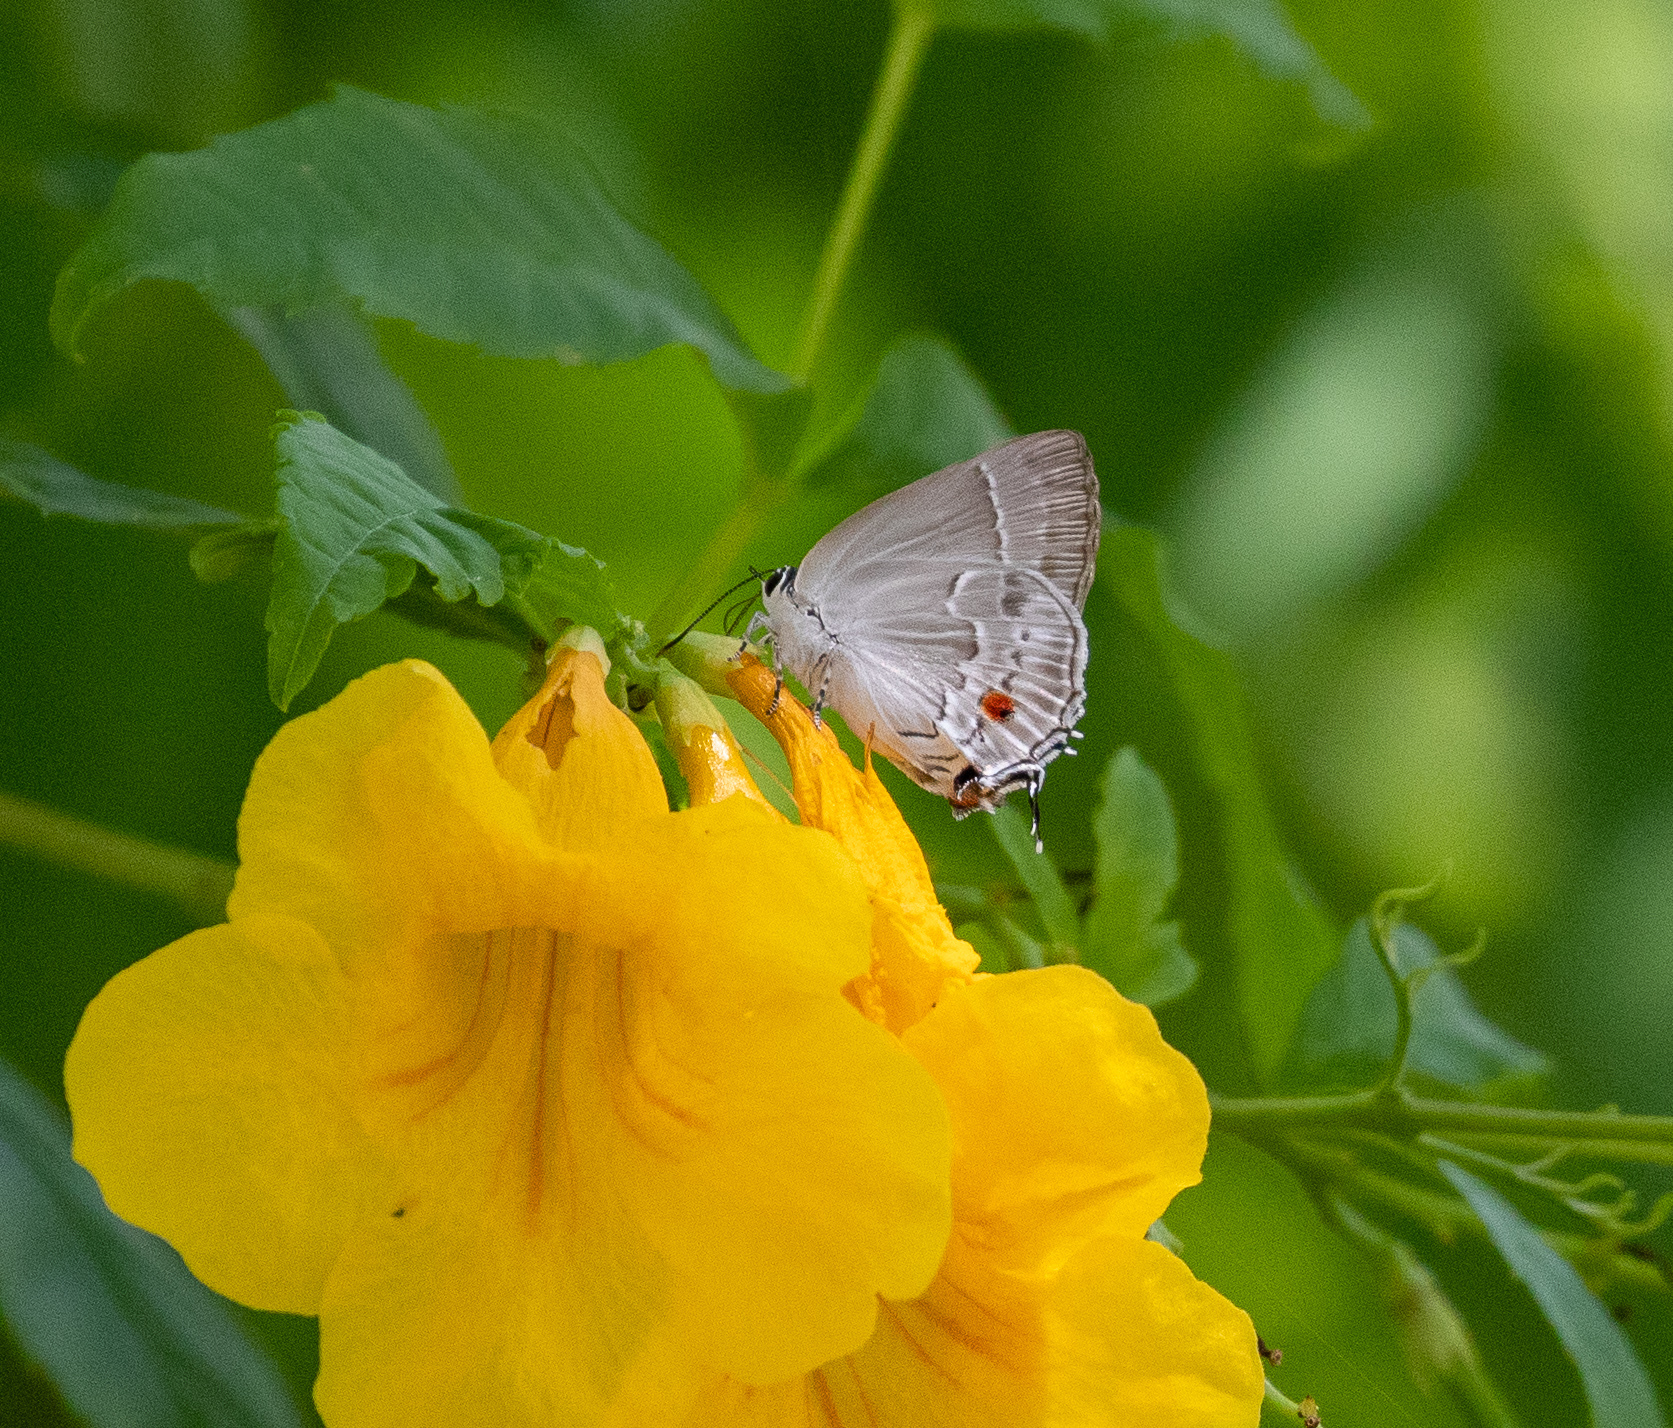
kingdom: Animalia
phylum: Arthropoda
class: Insecta
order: Lepidoptera
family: Lycaenidae
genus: Thecla
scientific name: Thecla enenia
